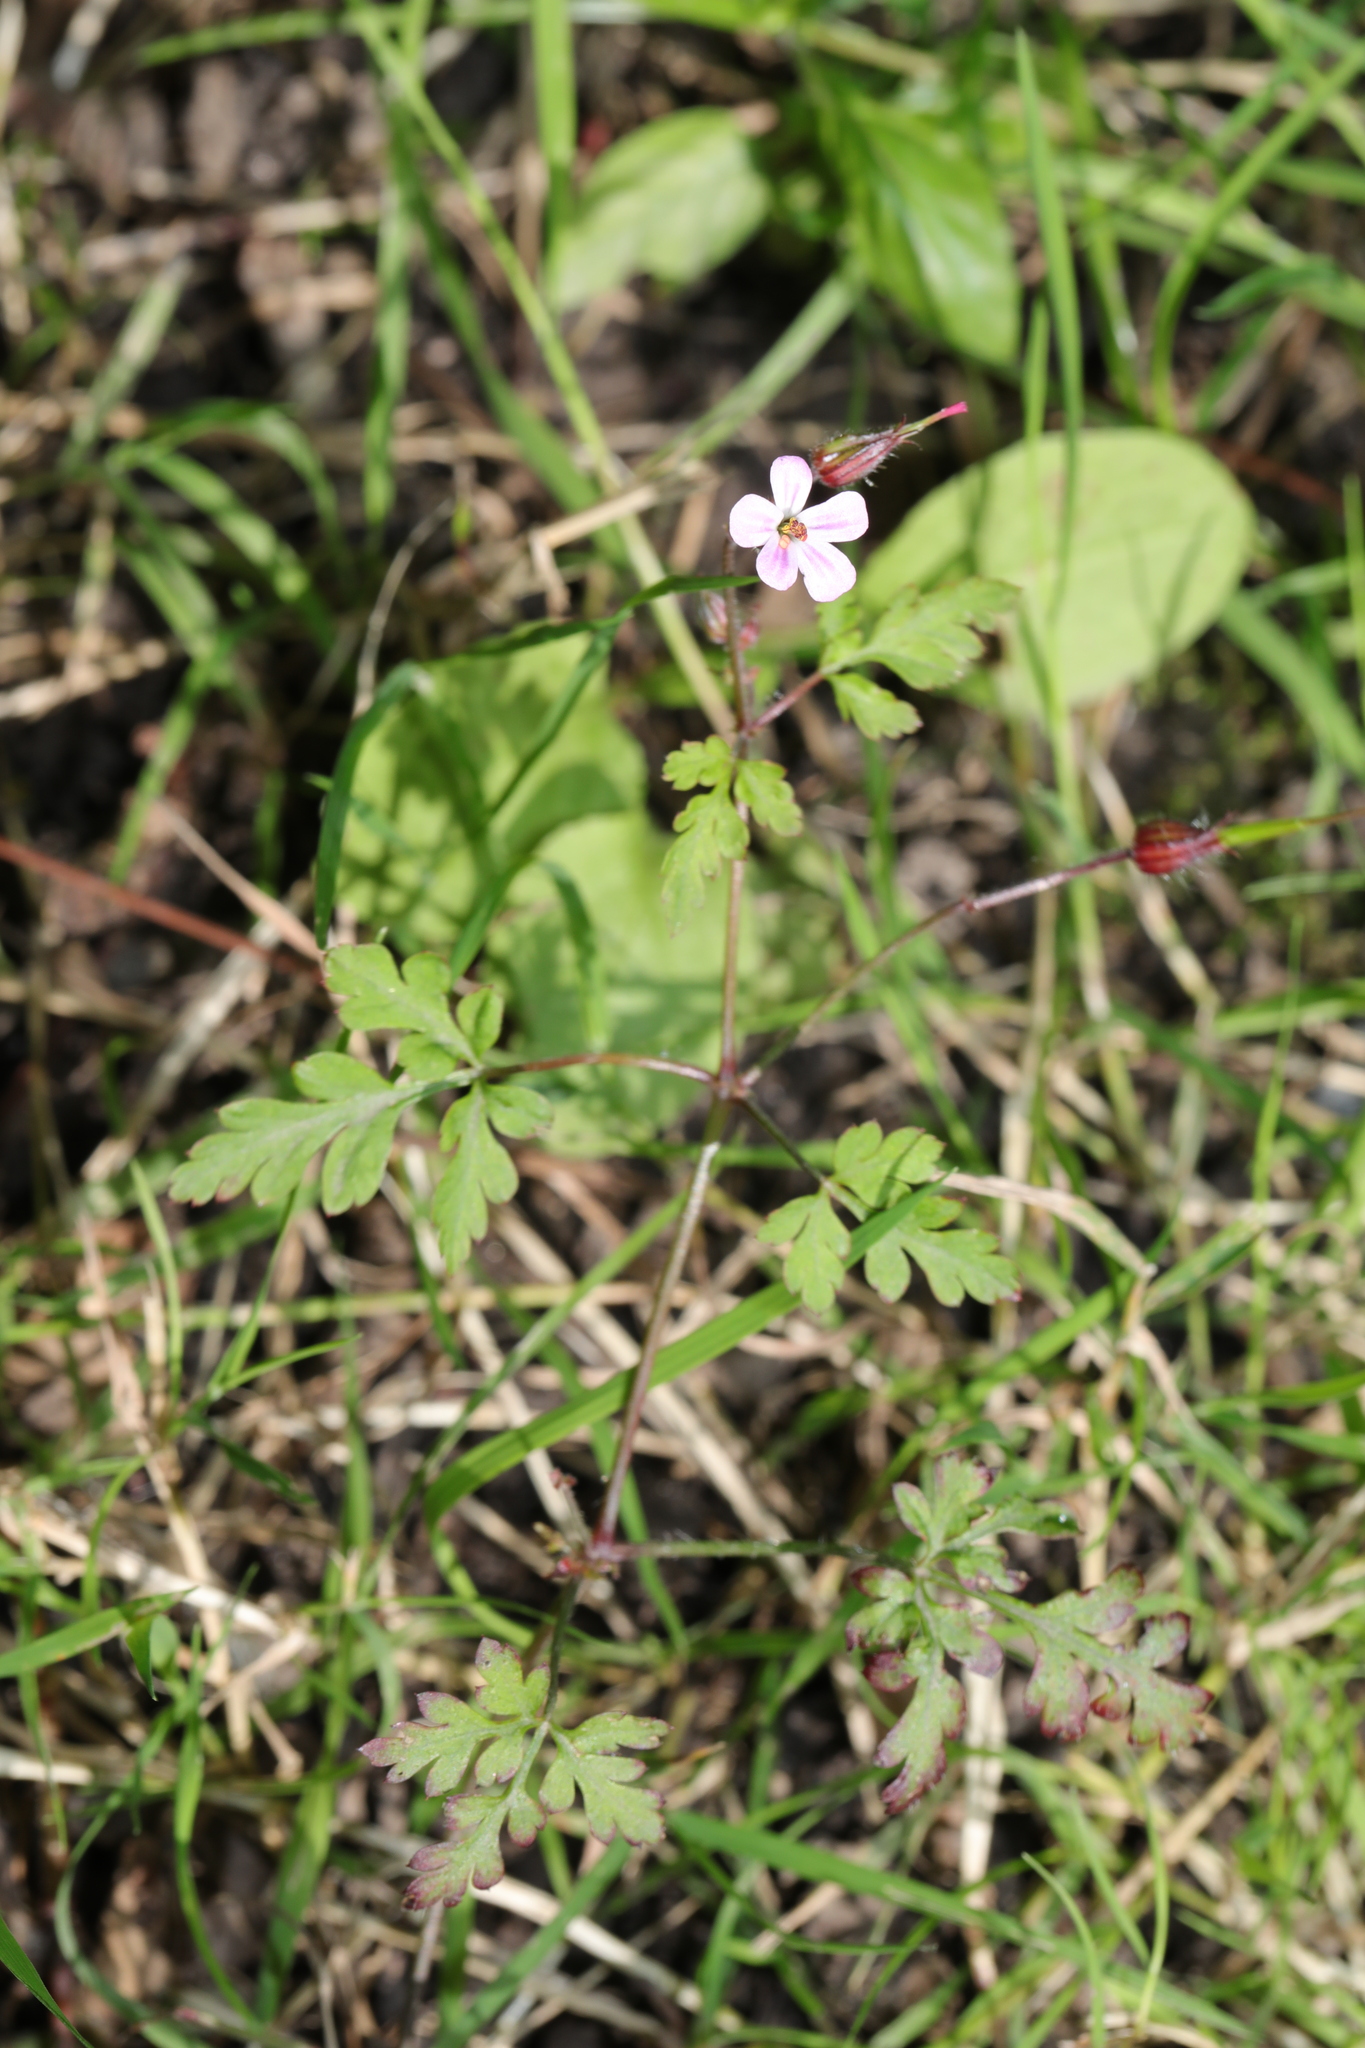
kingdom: Plantae
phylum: Tracheophyta
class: Magnoliopsida
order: Geraniales
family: Geraniaceae
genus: Geranium
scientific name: Geranium robertianum
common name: Herb-robert
